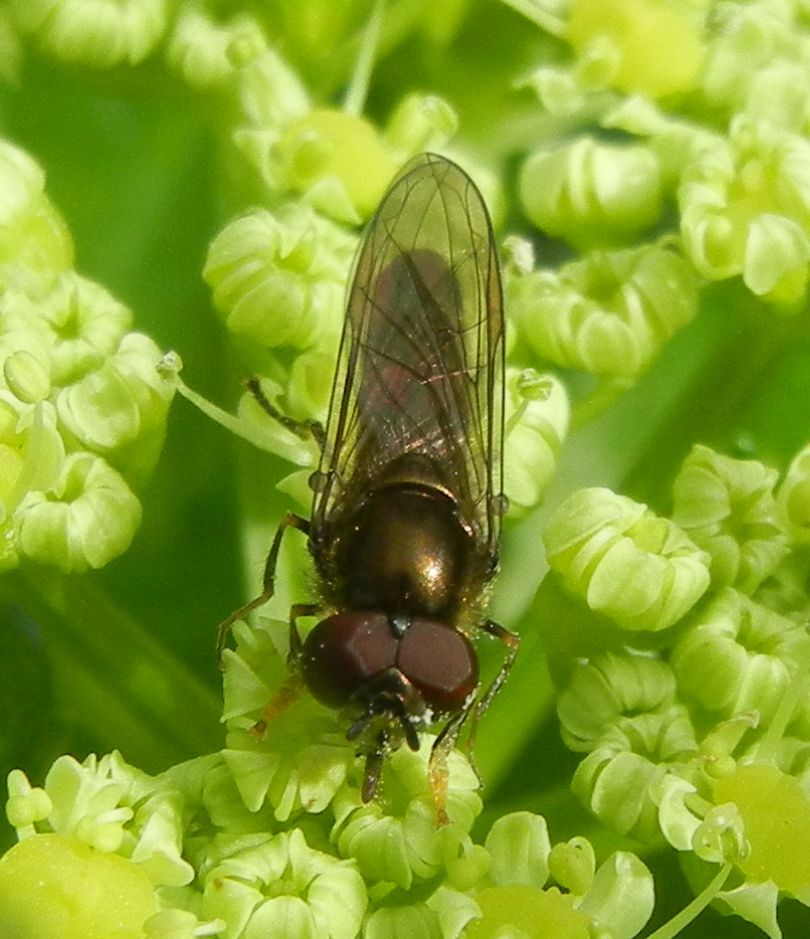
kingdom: Animalia
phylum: Arthropoda
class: Insecta
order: Diptera
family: Syrphidae
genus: Platycheirus
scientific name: Platycheirus albimanus
